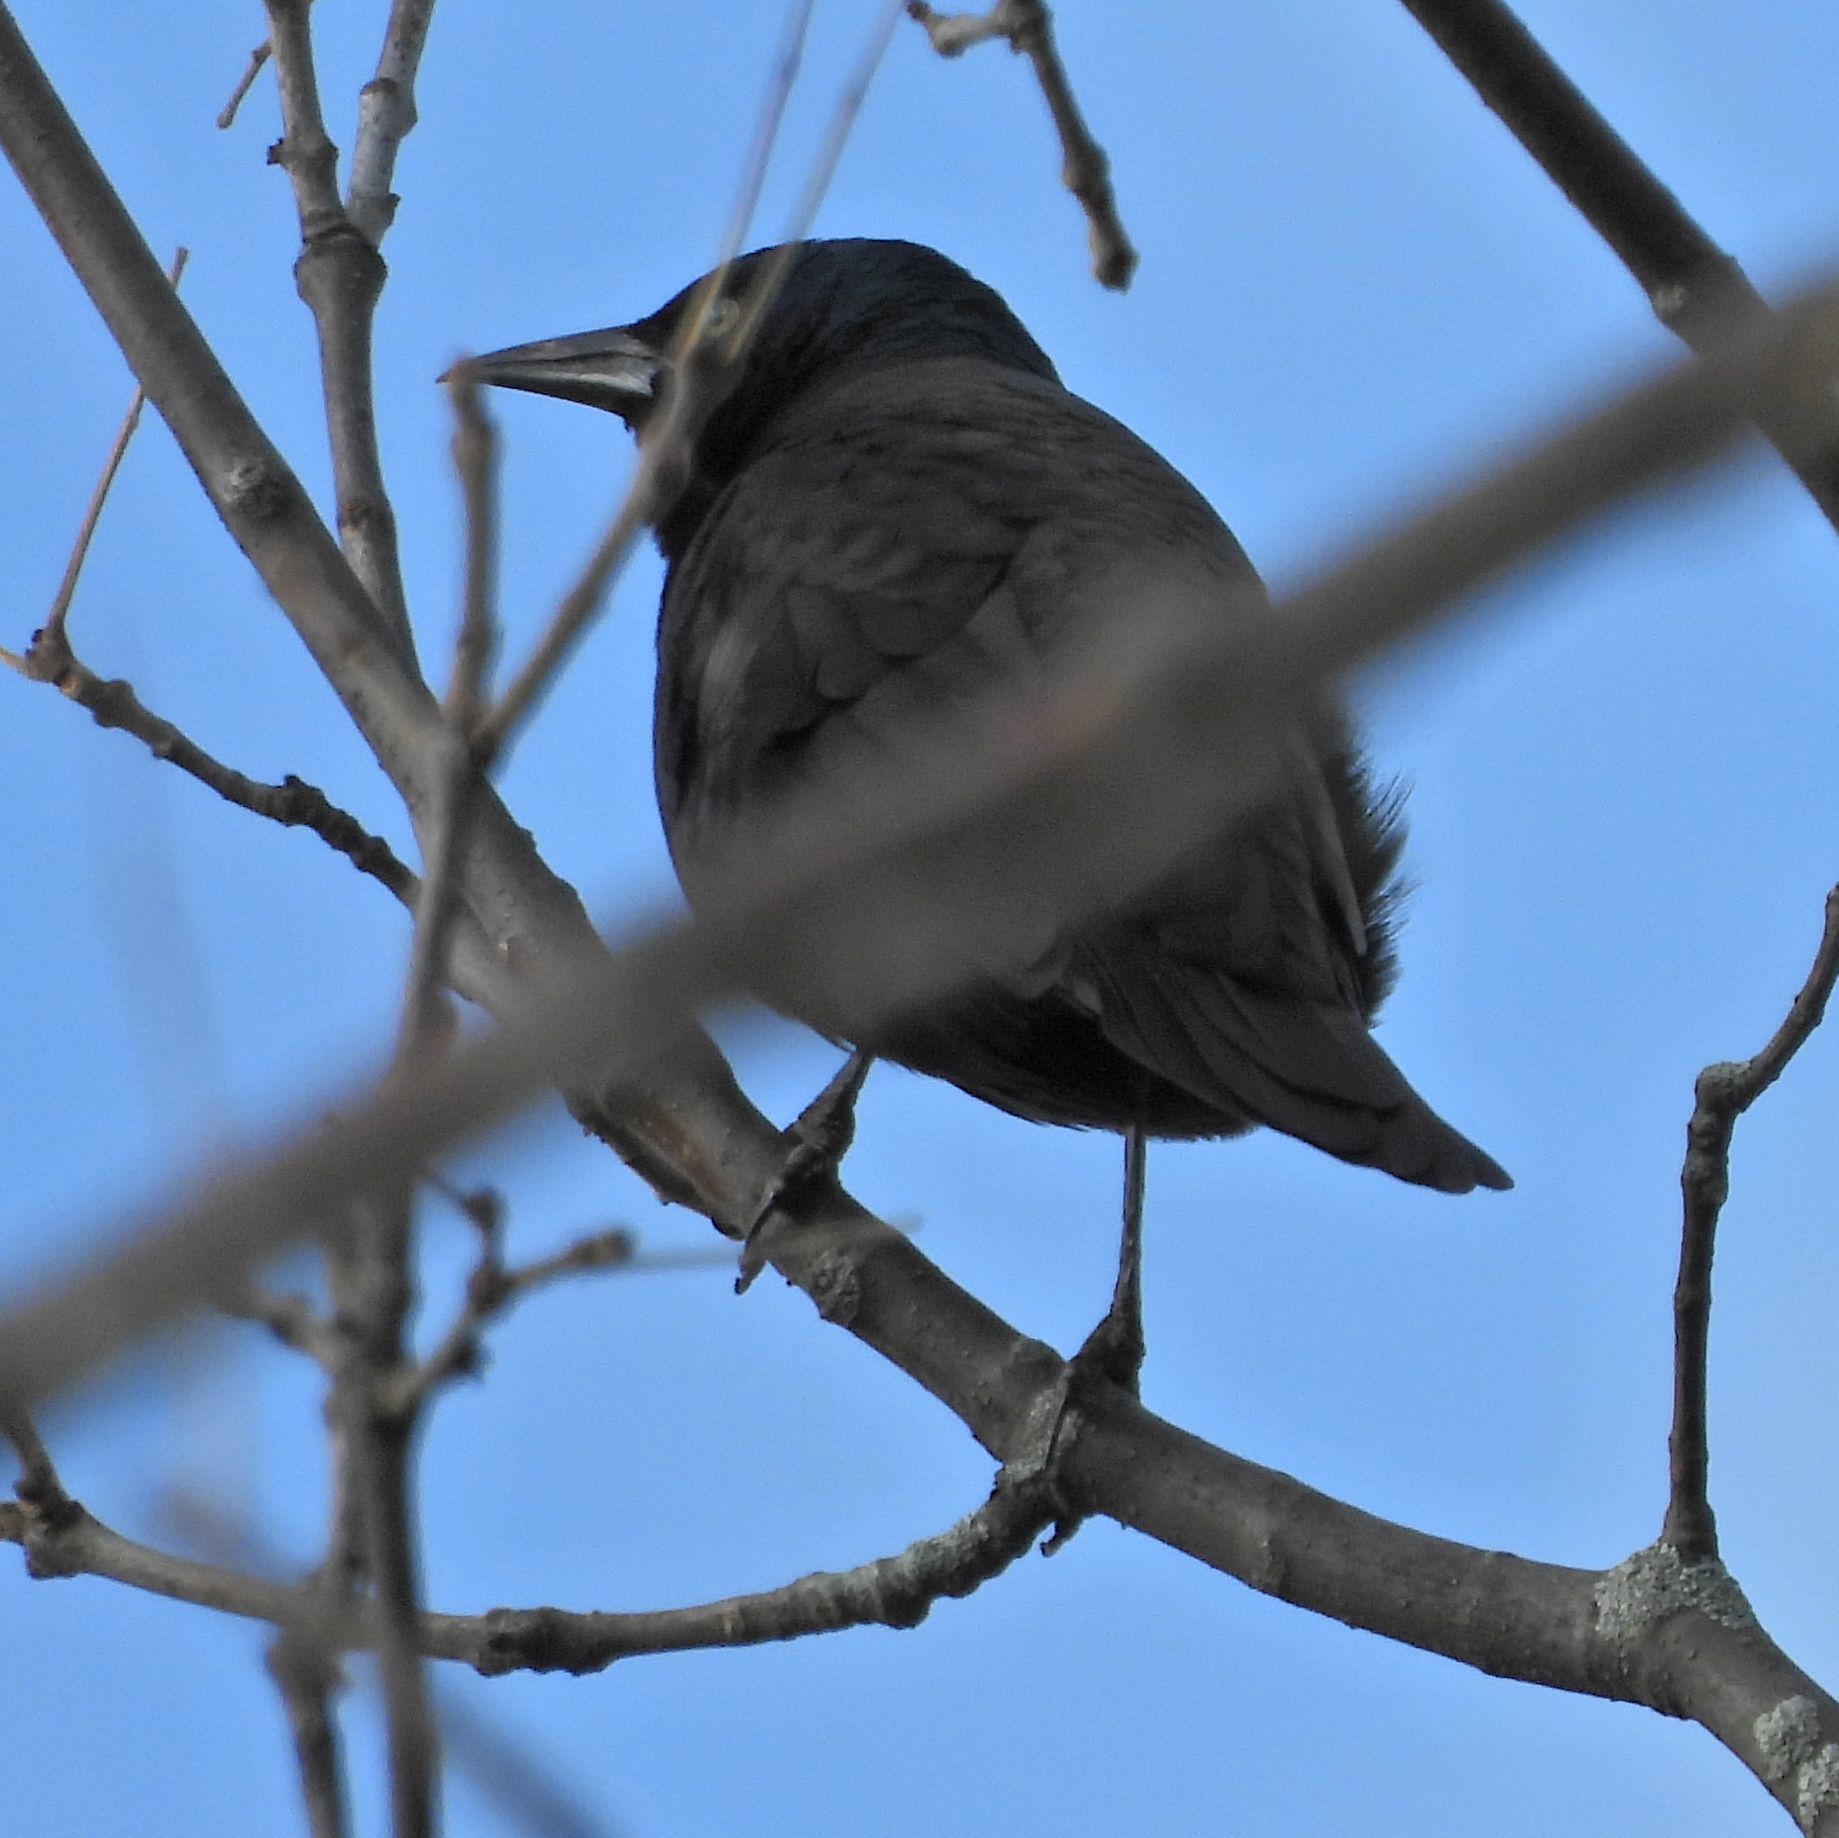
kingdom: Animalia
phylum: Chordata
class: Aves
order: Passeriformes
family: Icteridae
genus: Quiscalus
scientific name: Quiscalus quiscula
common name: Common grackle
